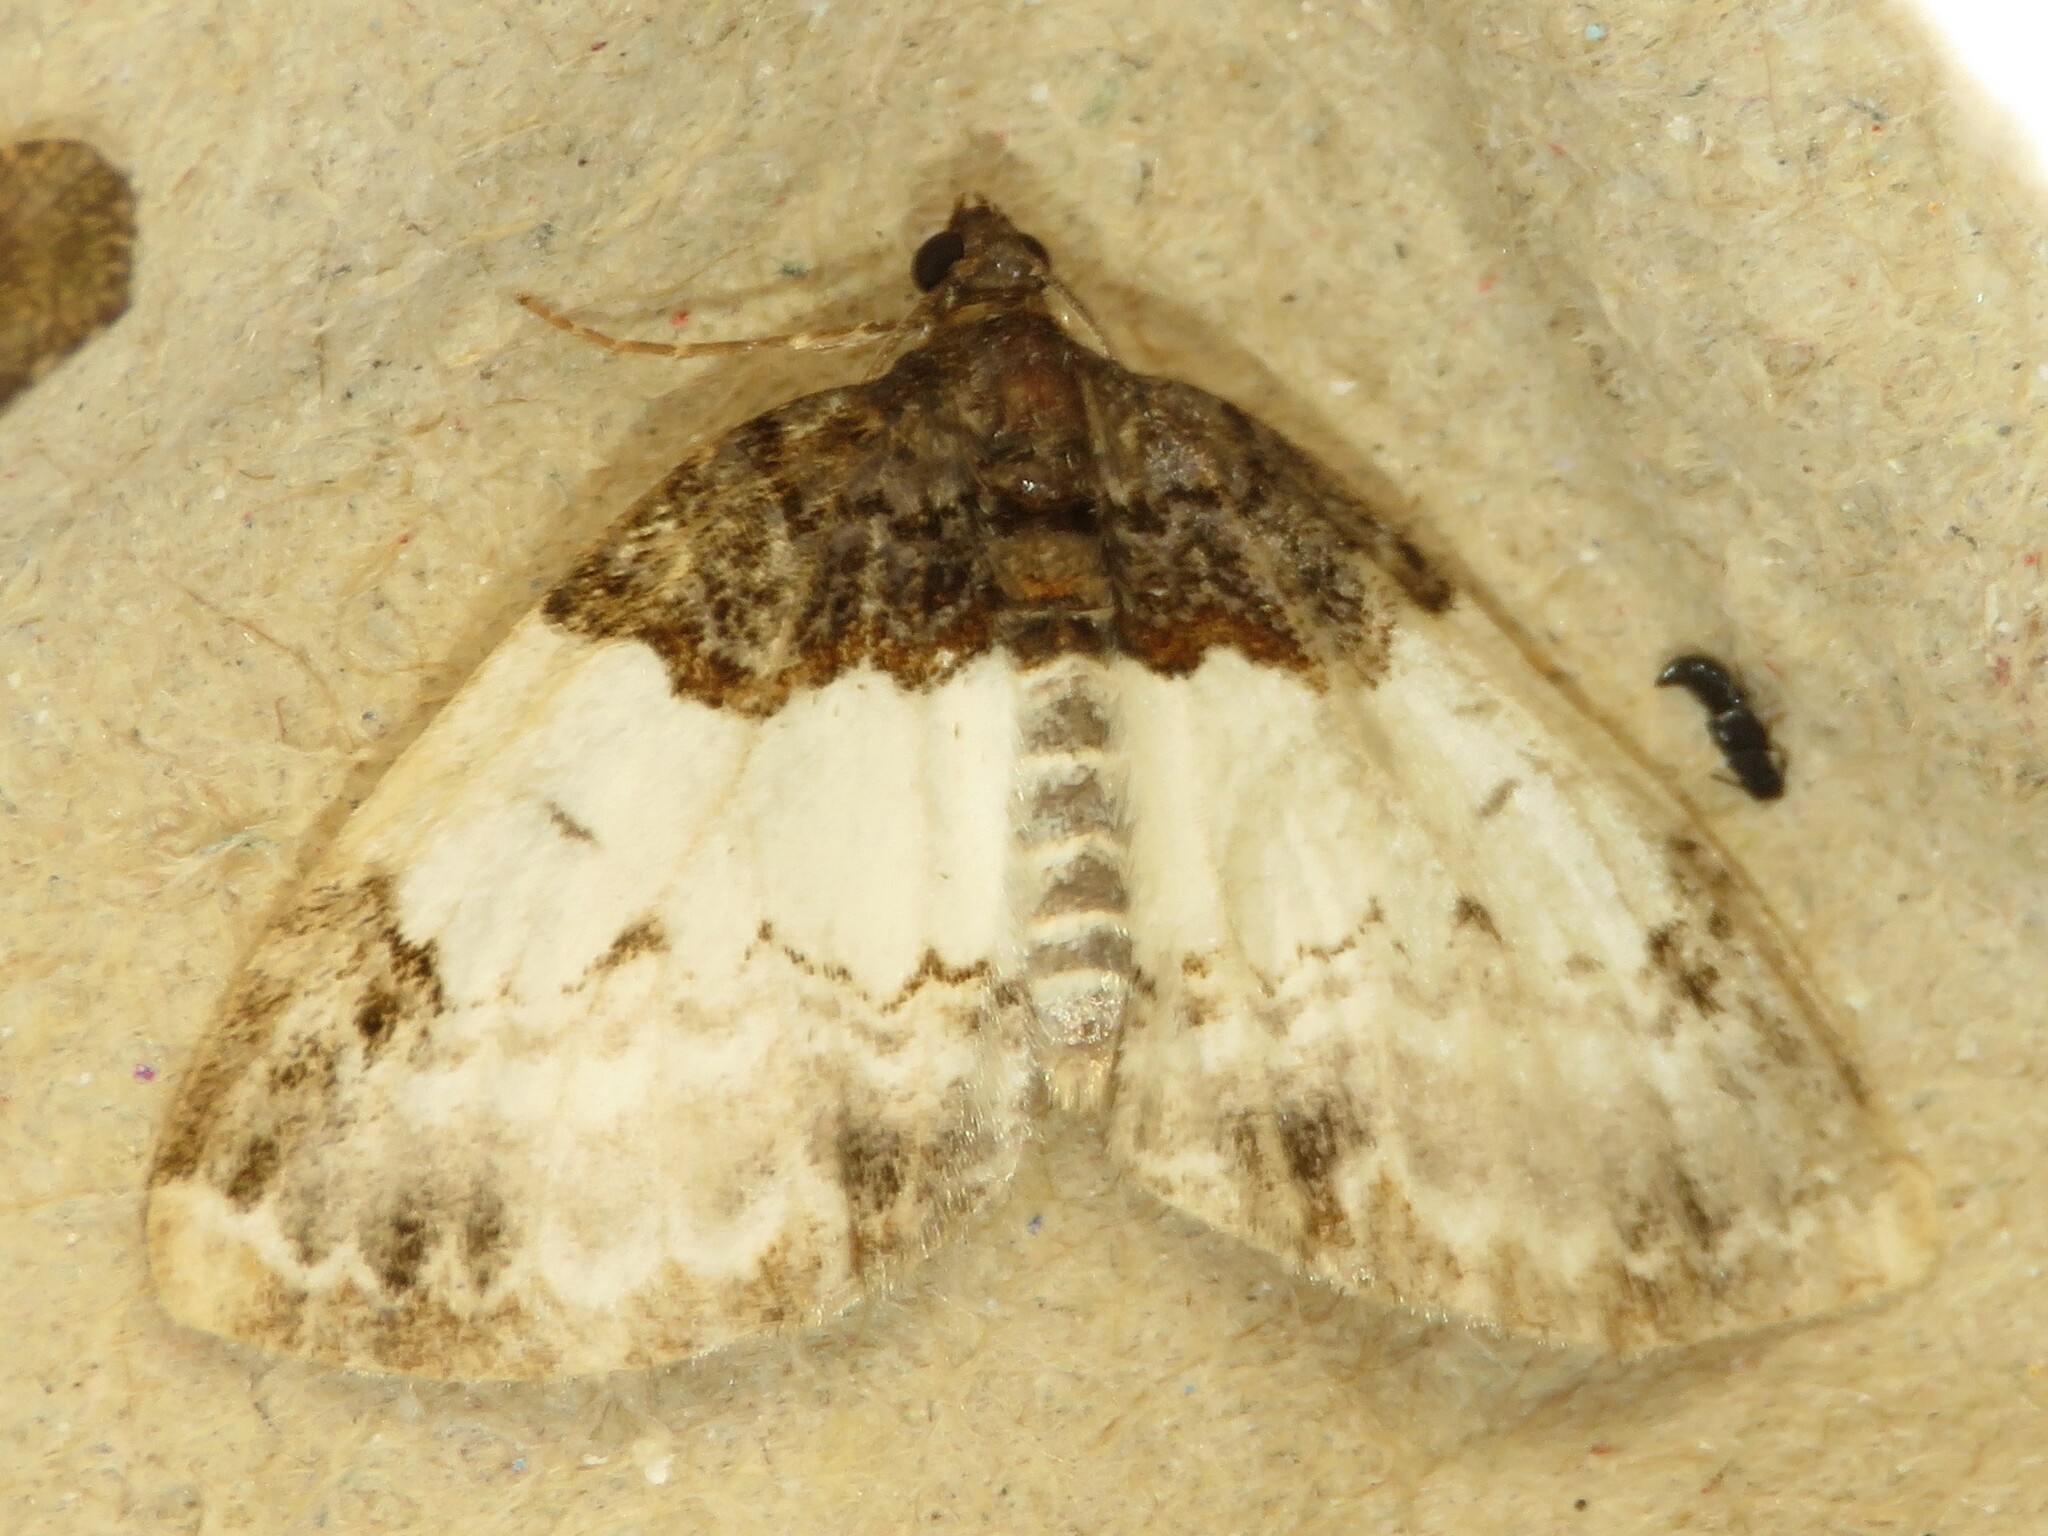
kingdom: Animalia
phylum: Arthropoda
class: Insecta
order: Lepidoptera
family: Geometridae
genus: Mesoleuca
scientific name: Mesoleuca ruficillata
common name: White-ribboned carpet moth
